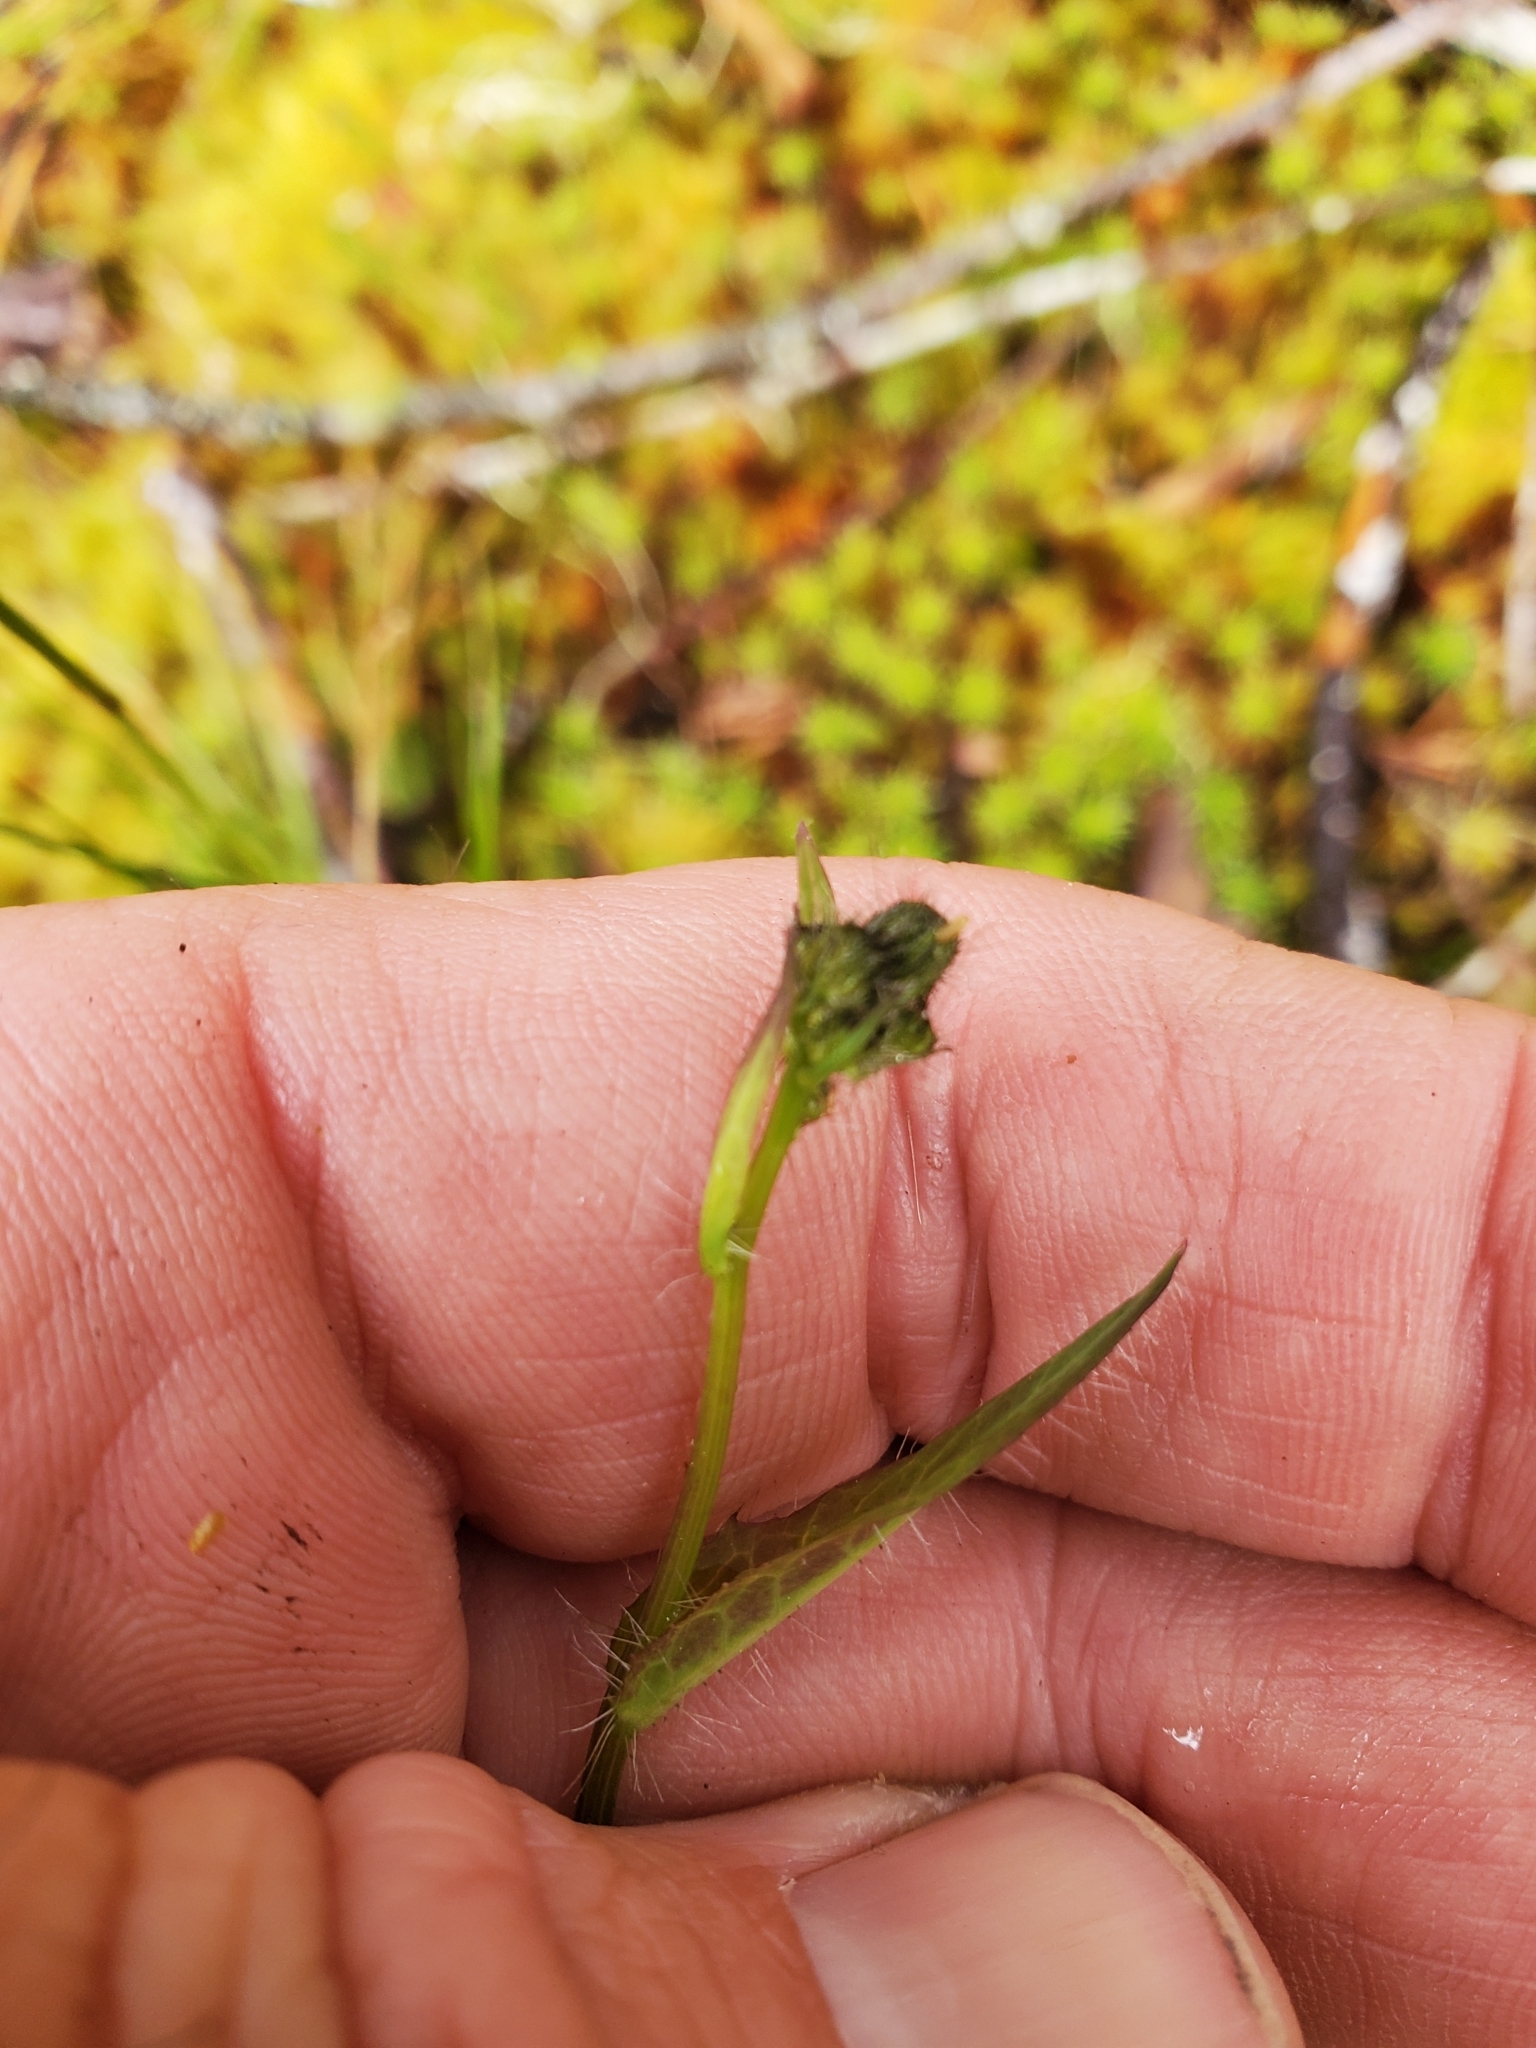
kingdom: Plantae
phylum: Tracheophyta
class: Magnoliopsida
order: Asterales
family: Asteraceae
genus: Hieracium
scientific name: Hieracium albiflorum
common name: White hawkweed
